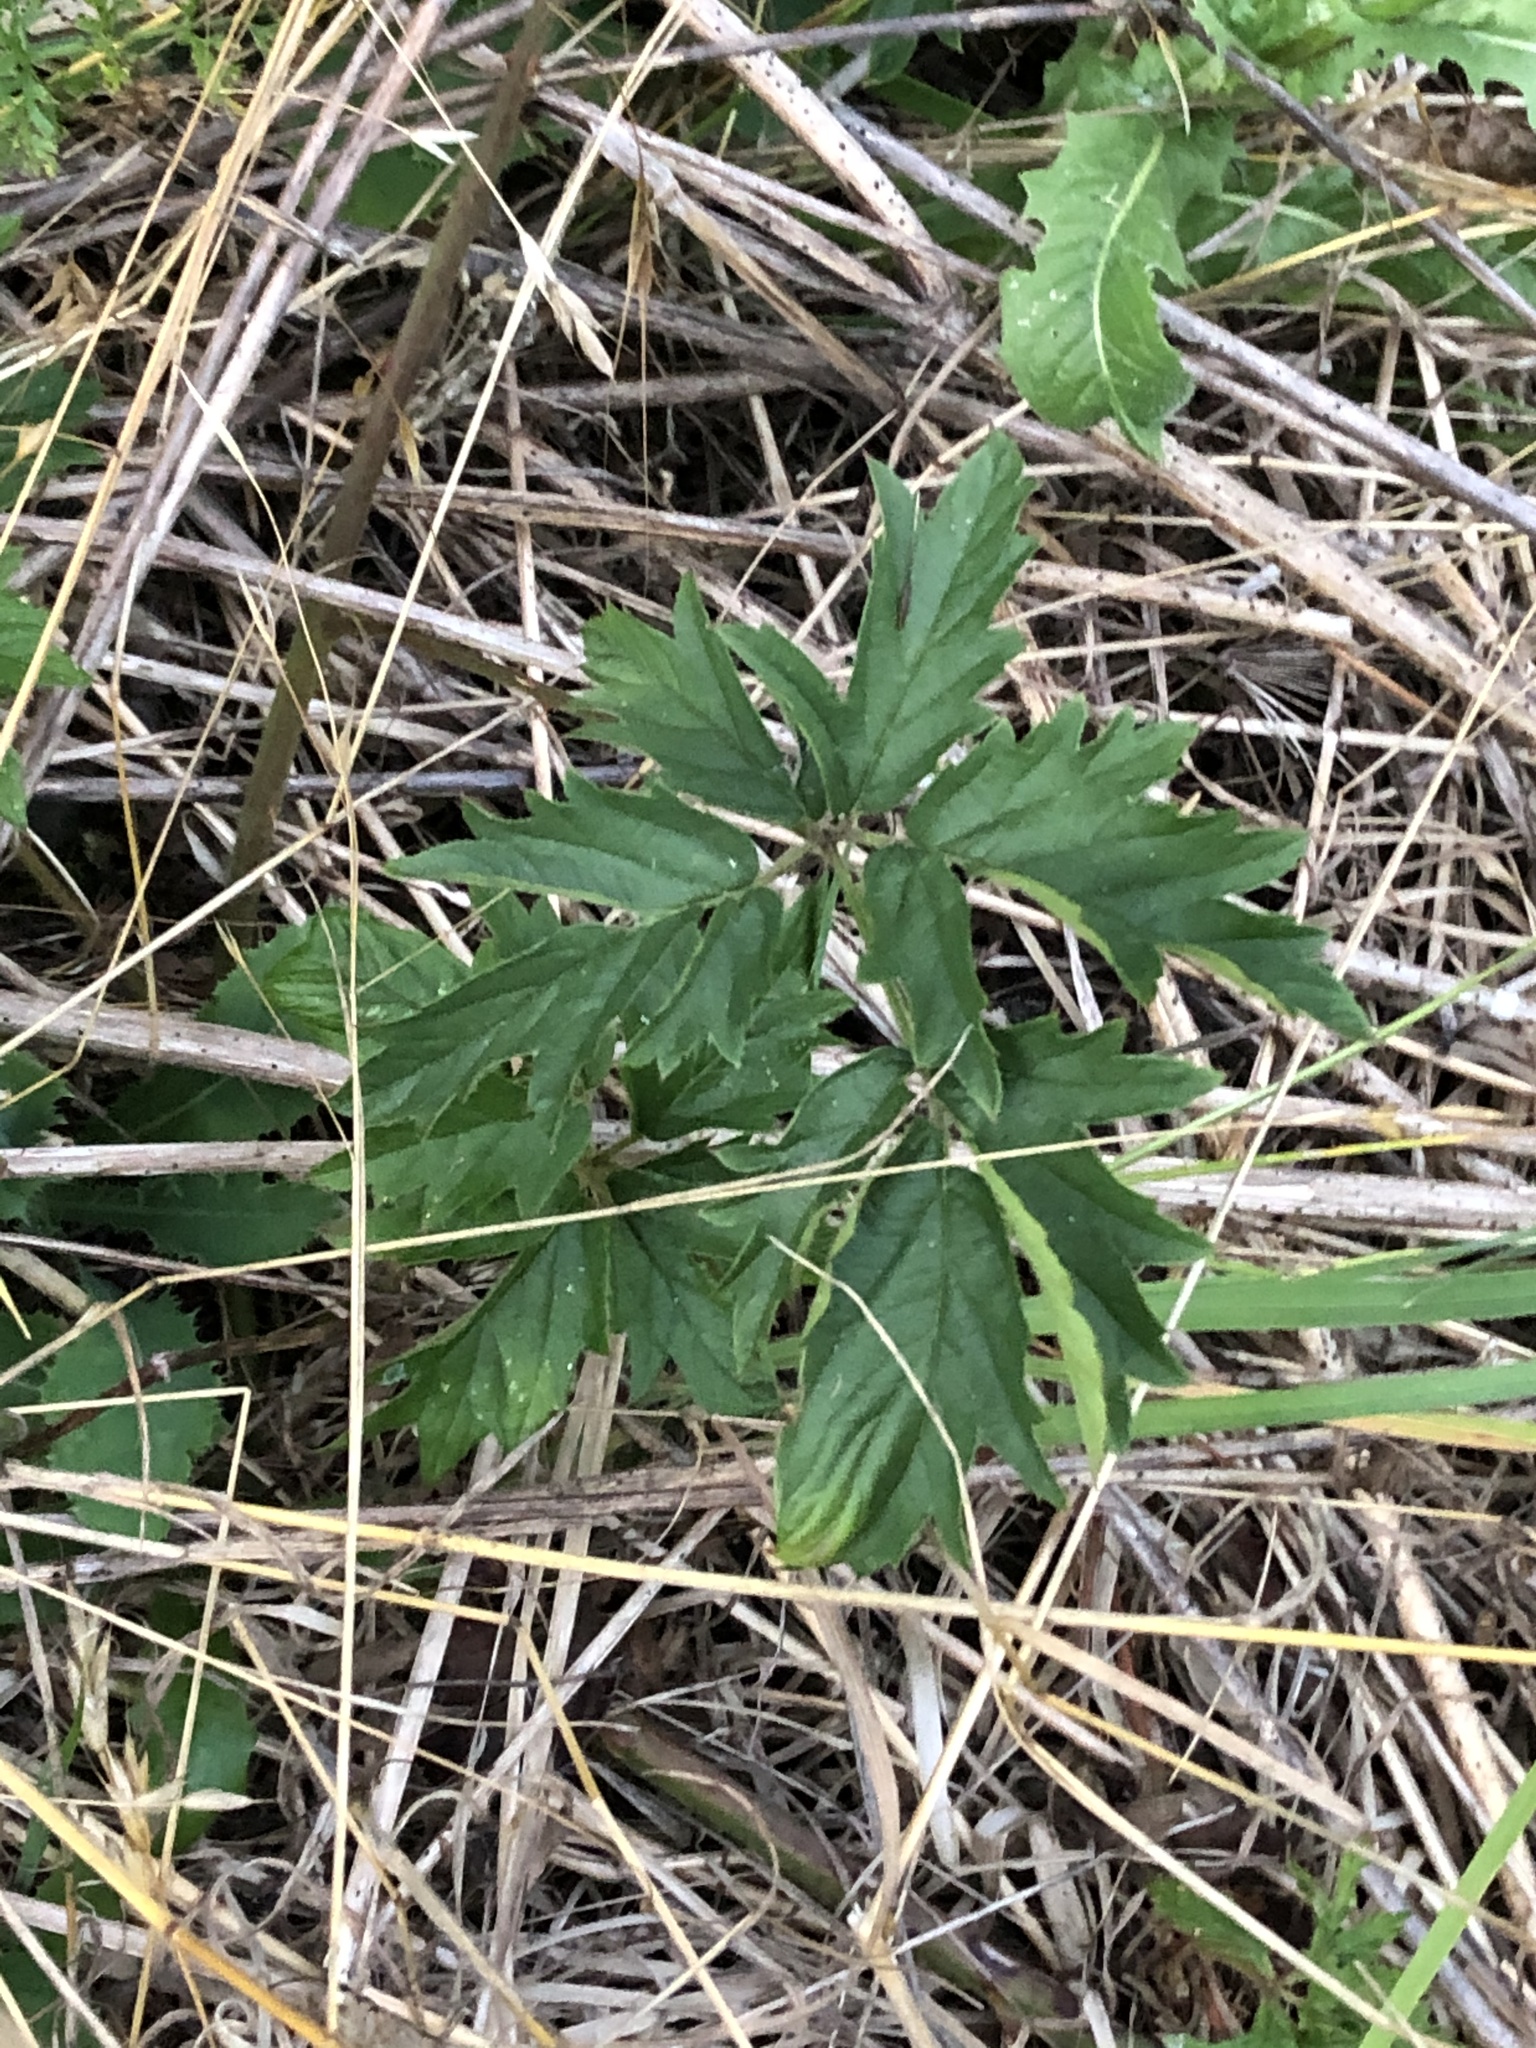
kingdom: Plantae
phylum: Tracheophyta
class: Magnoliopsida
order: Rosales
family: Rosaceae
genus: Rubus
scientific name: Rubus laciniatus
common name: Evergreen blackberry
